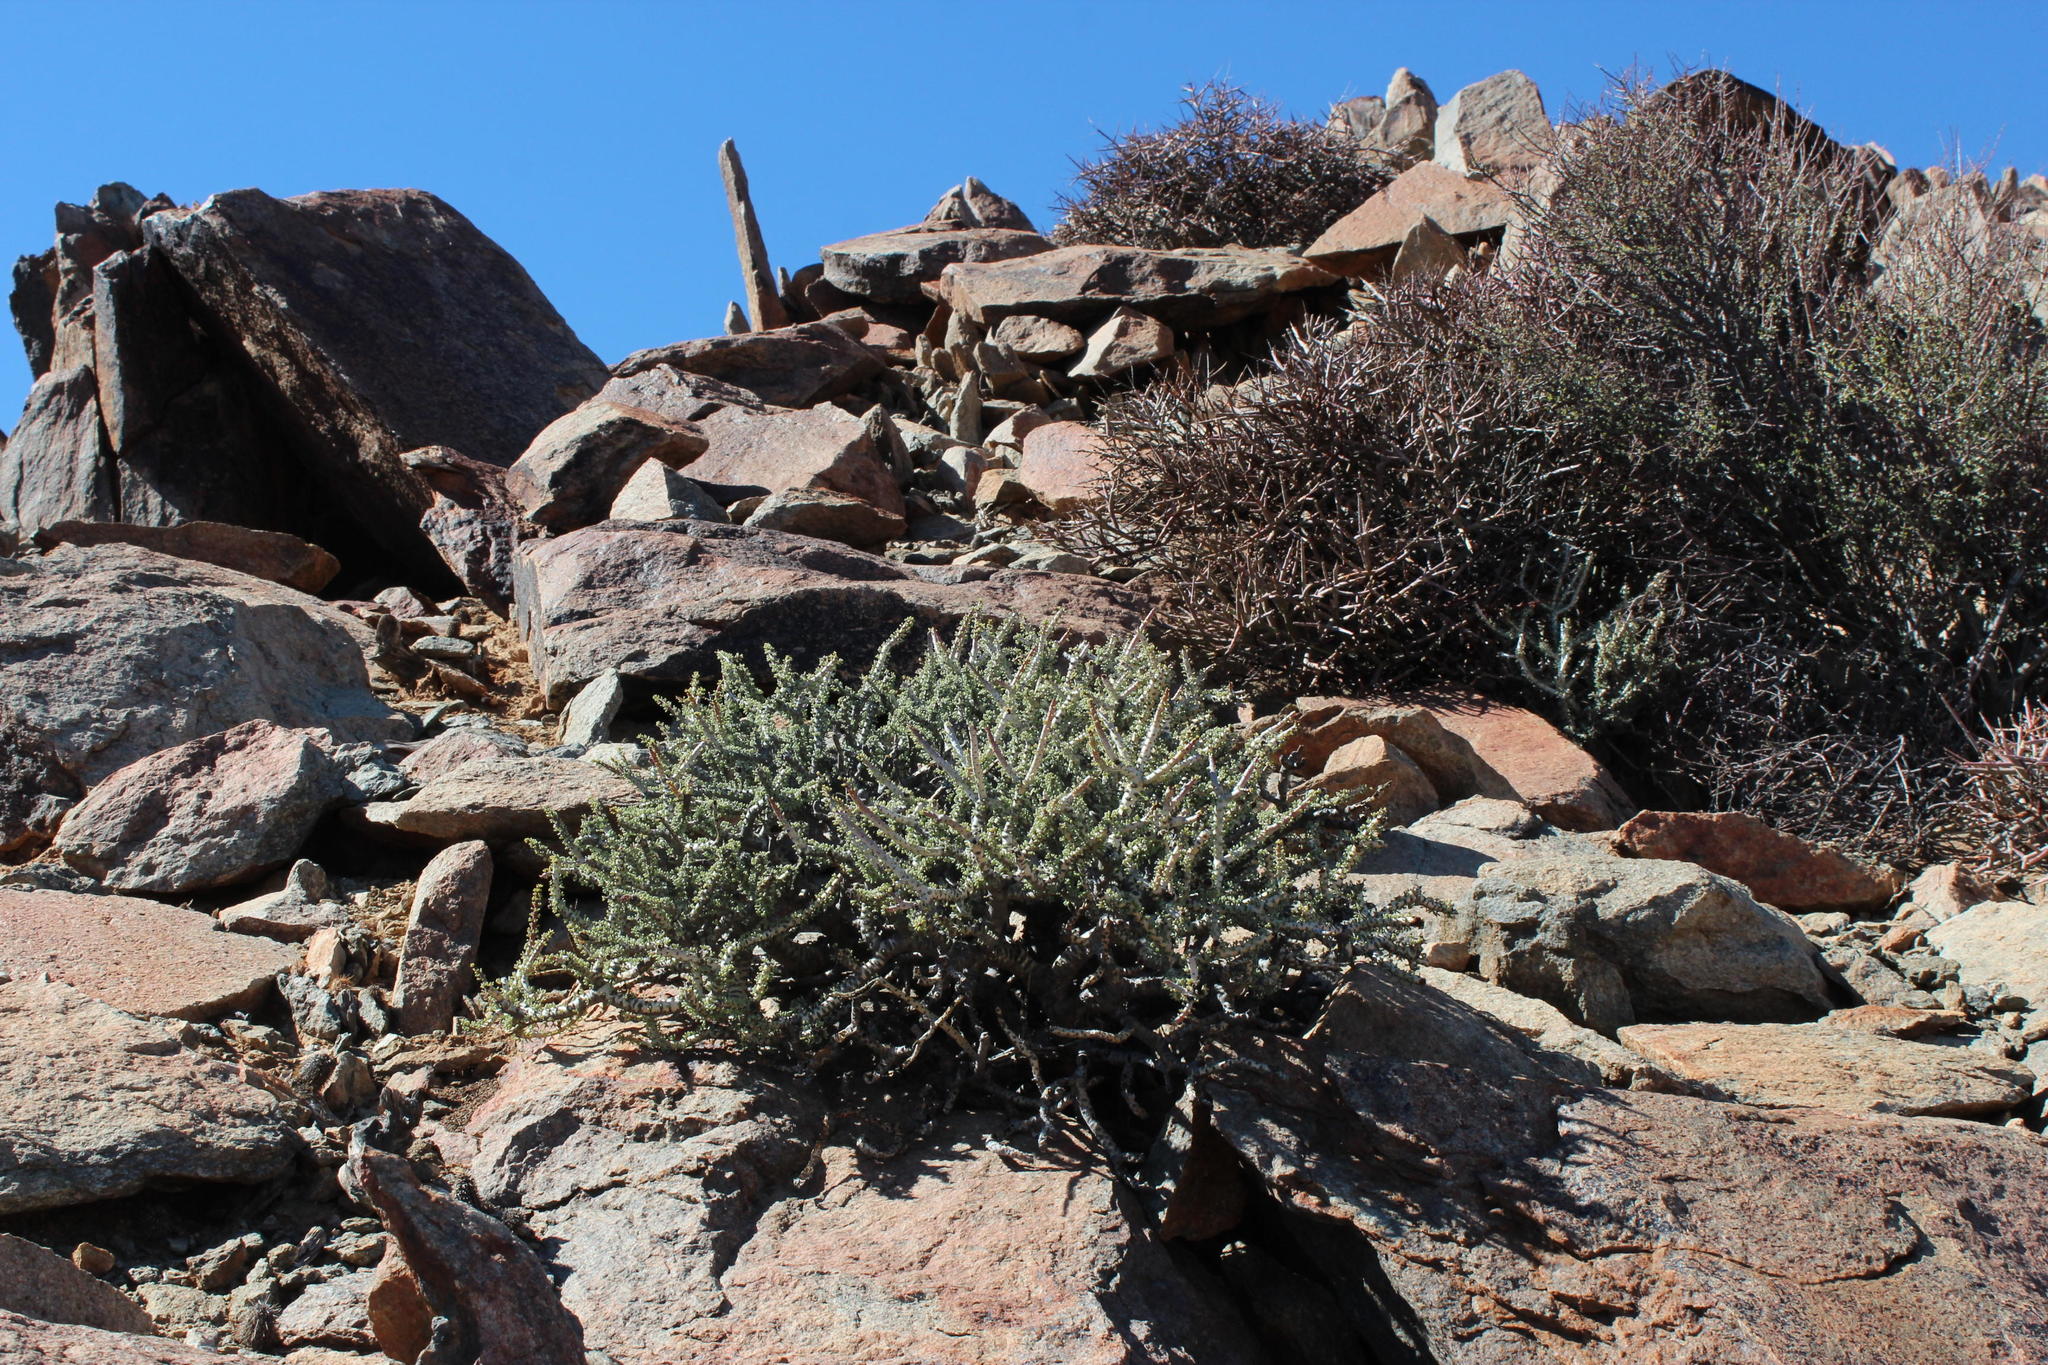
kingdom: Plantae
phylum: Tracheophyta
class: Magnoliopsida
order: Caryophyllales
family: Didiereaceae
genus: Portulacaria
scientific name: Portulacaria namaquensis
